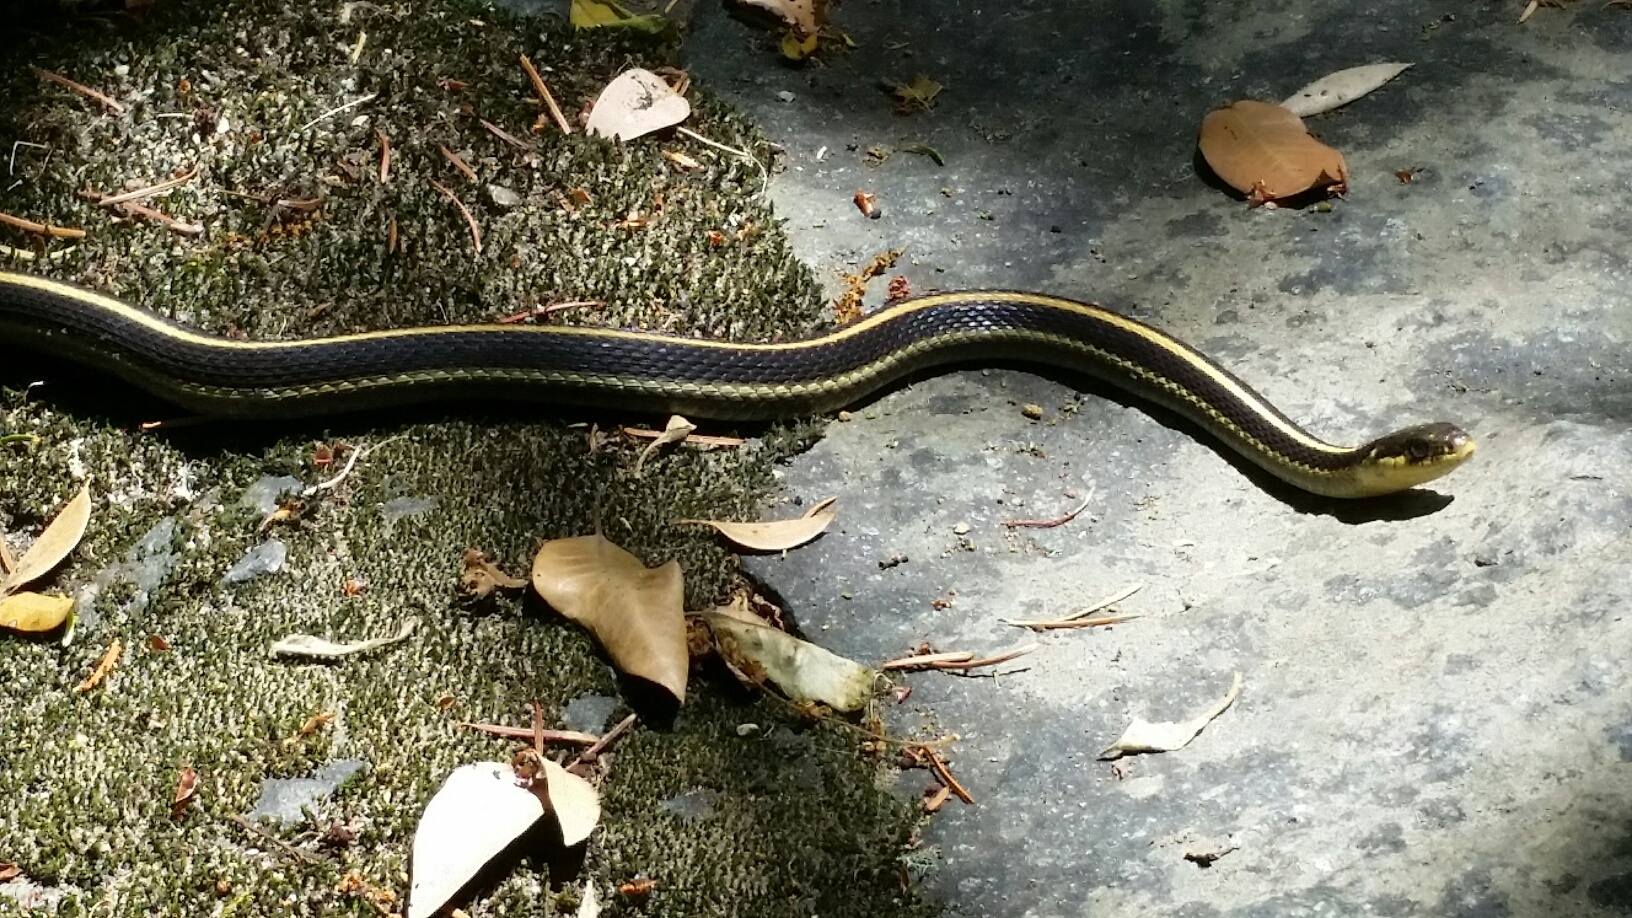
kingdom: Animalia
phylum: Chordata
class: Squamata
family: Colubridae
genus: Thamnophis
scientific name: Thamnophis elegans
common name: Western terrestrial garter snake
